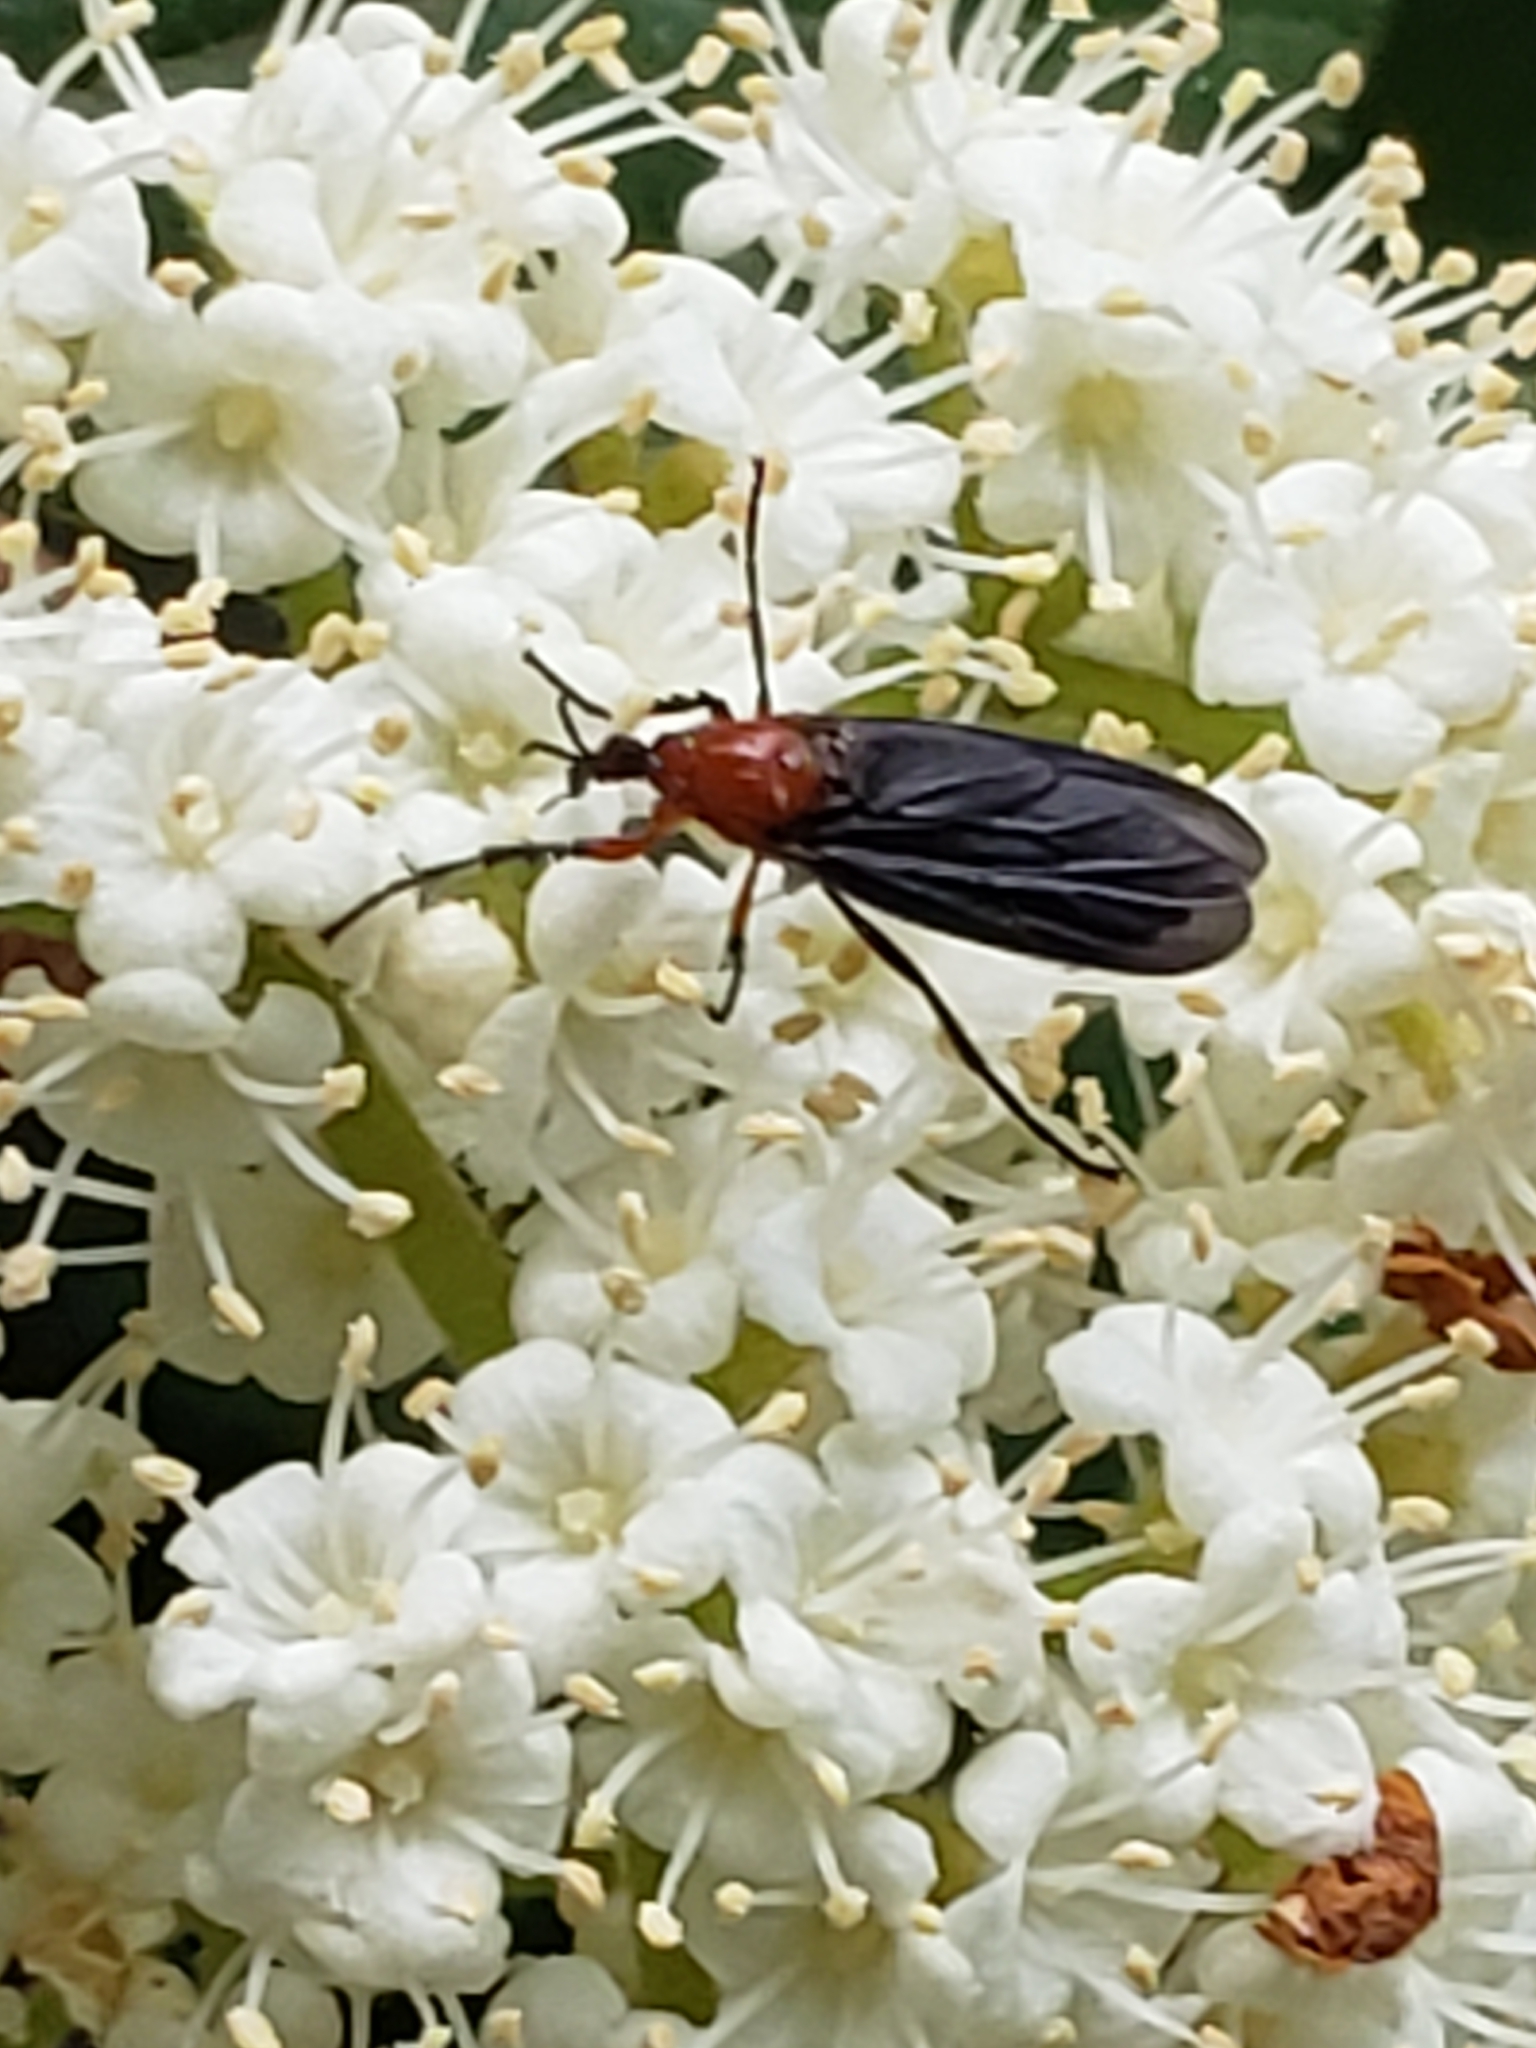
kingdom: Animalia
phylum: Arthropoda
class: Insecta
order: Diptera
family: Bibionidae
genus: Dilophus
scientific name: Dilophus spinipes
